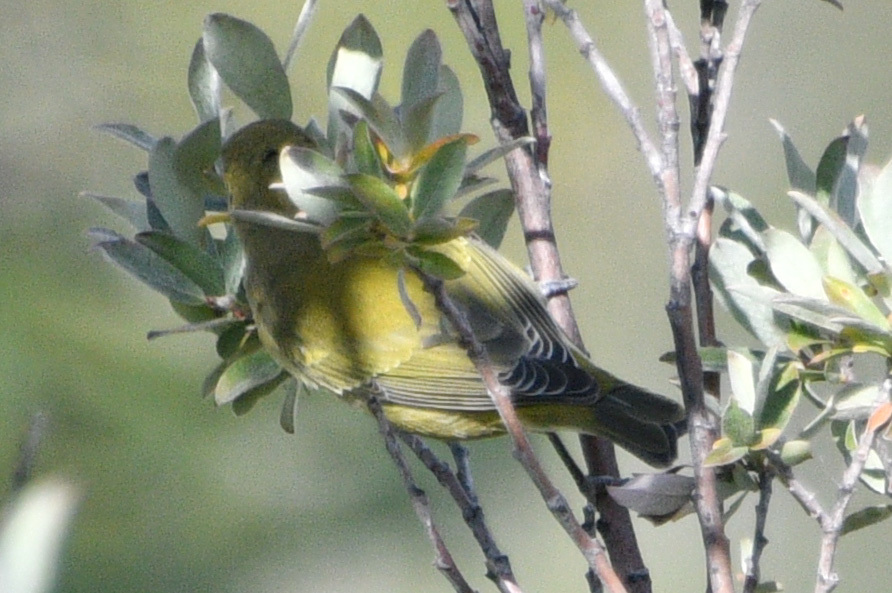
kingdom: Animalia
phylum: Chordata
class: Aves
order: Passeriformes
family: Parulidae
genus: Leiothlypis
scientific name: Leiothlypis peregrina
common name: Tennessee warbler
